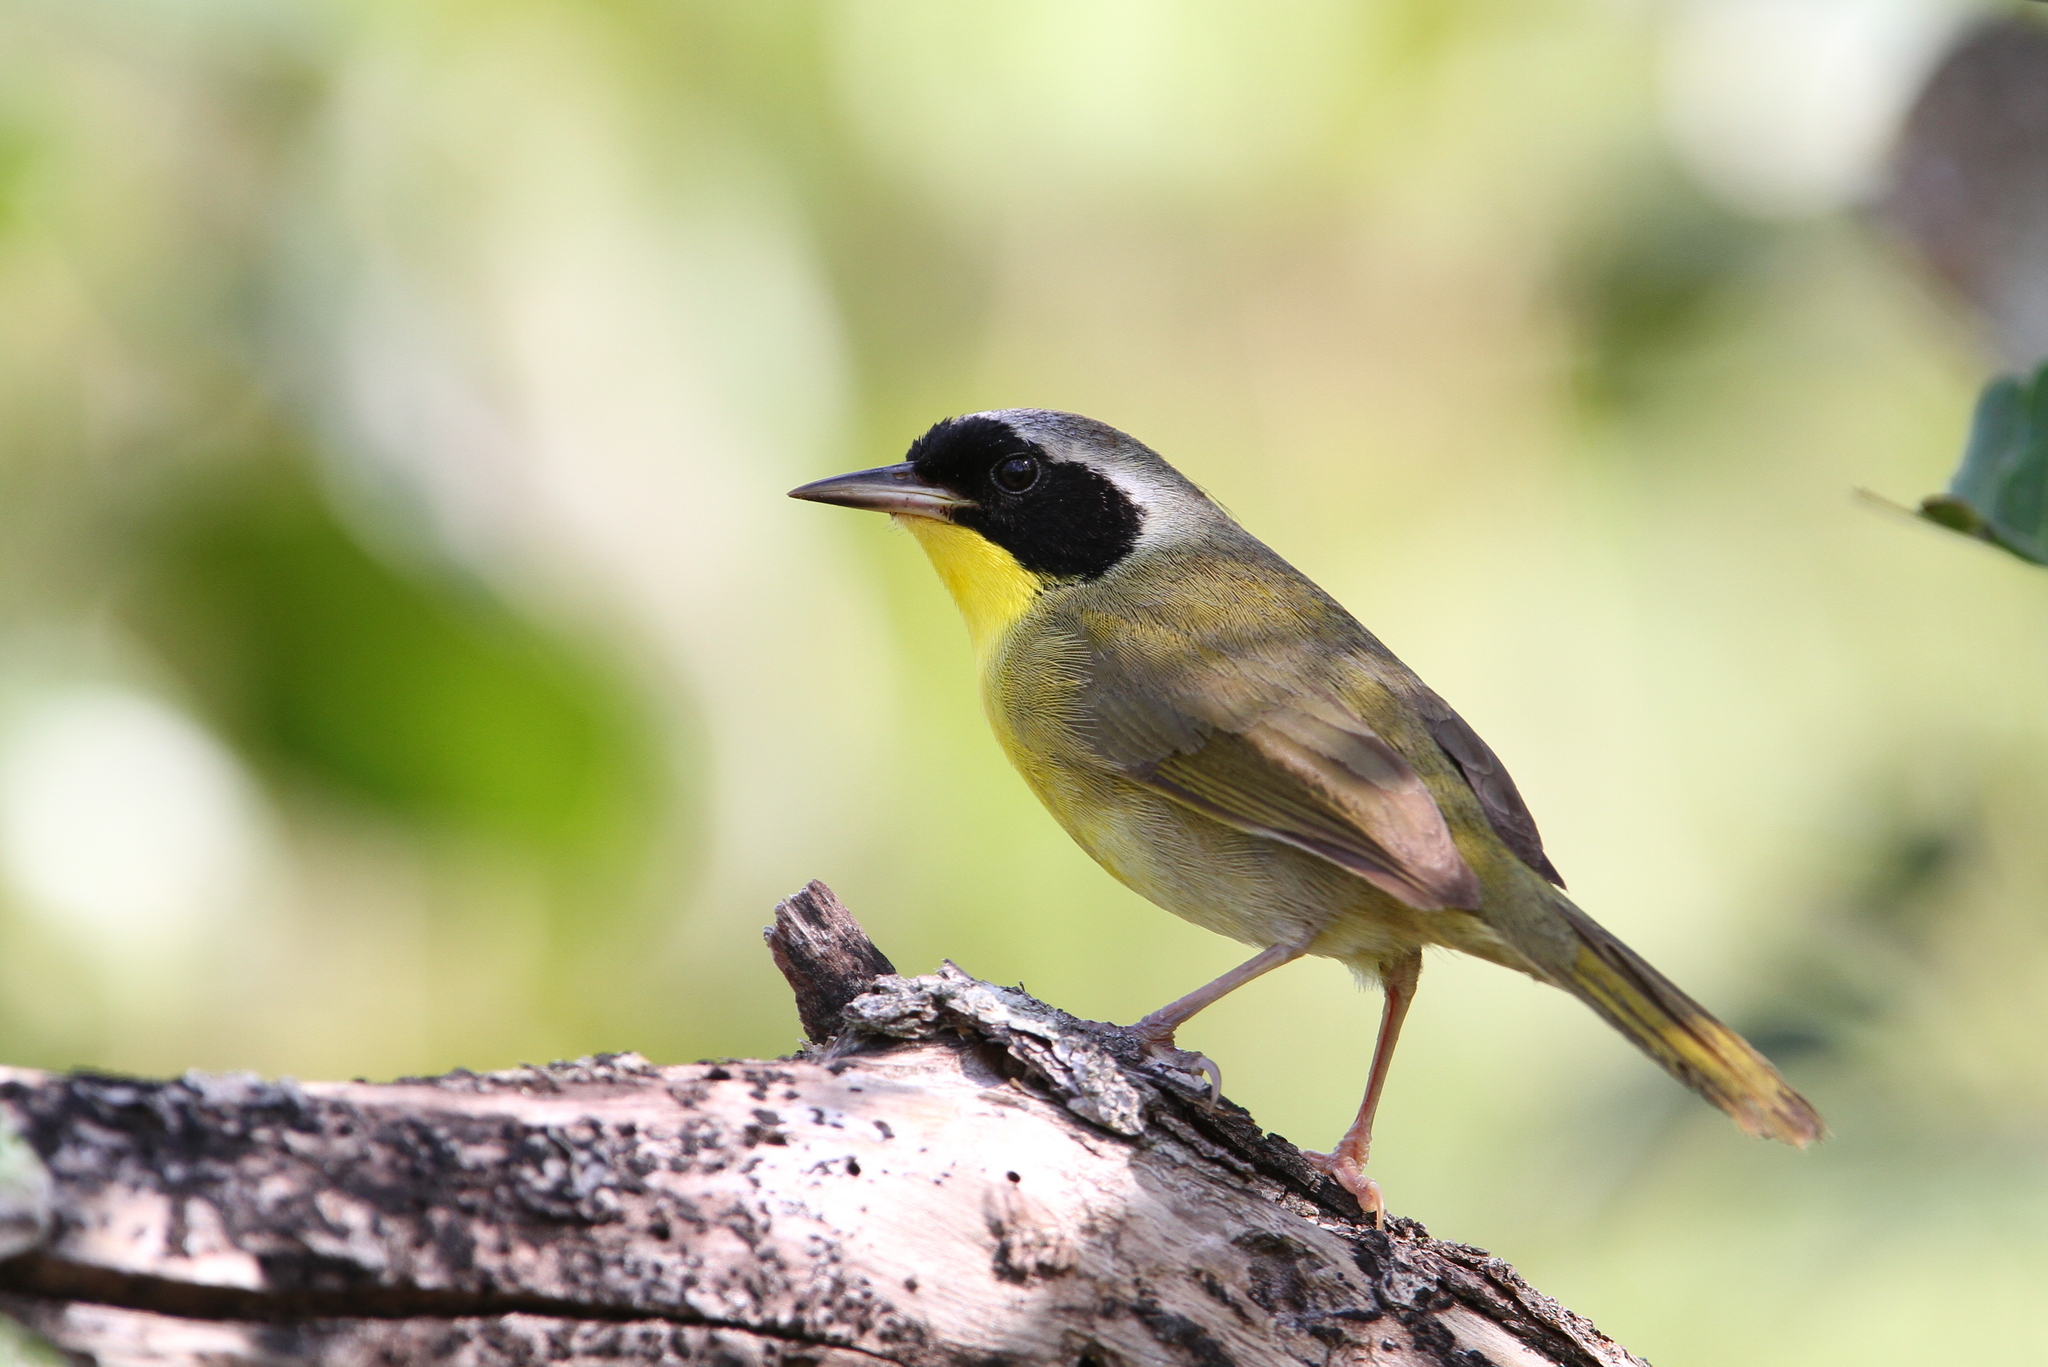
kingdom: Animalia
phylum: Chordata
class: Aves
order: Passeriformes
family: Parulidae
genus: Geothlypis
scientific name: Geothlypis rostrata
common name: Bahama yellowthroat
